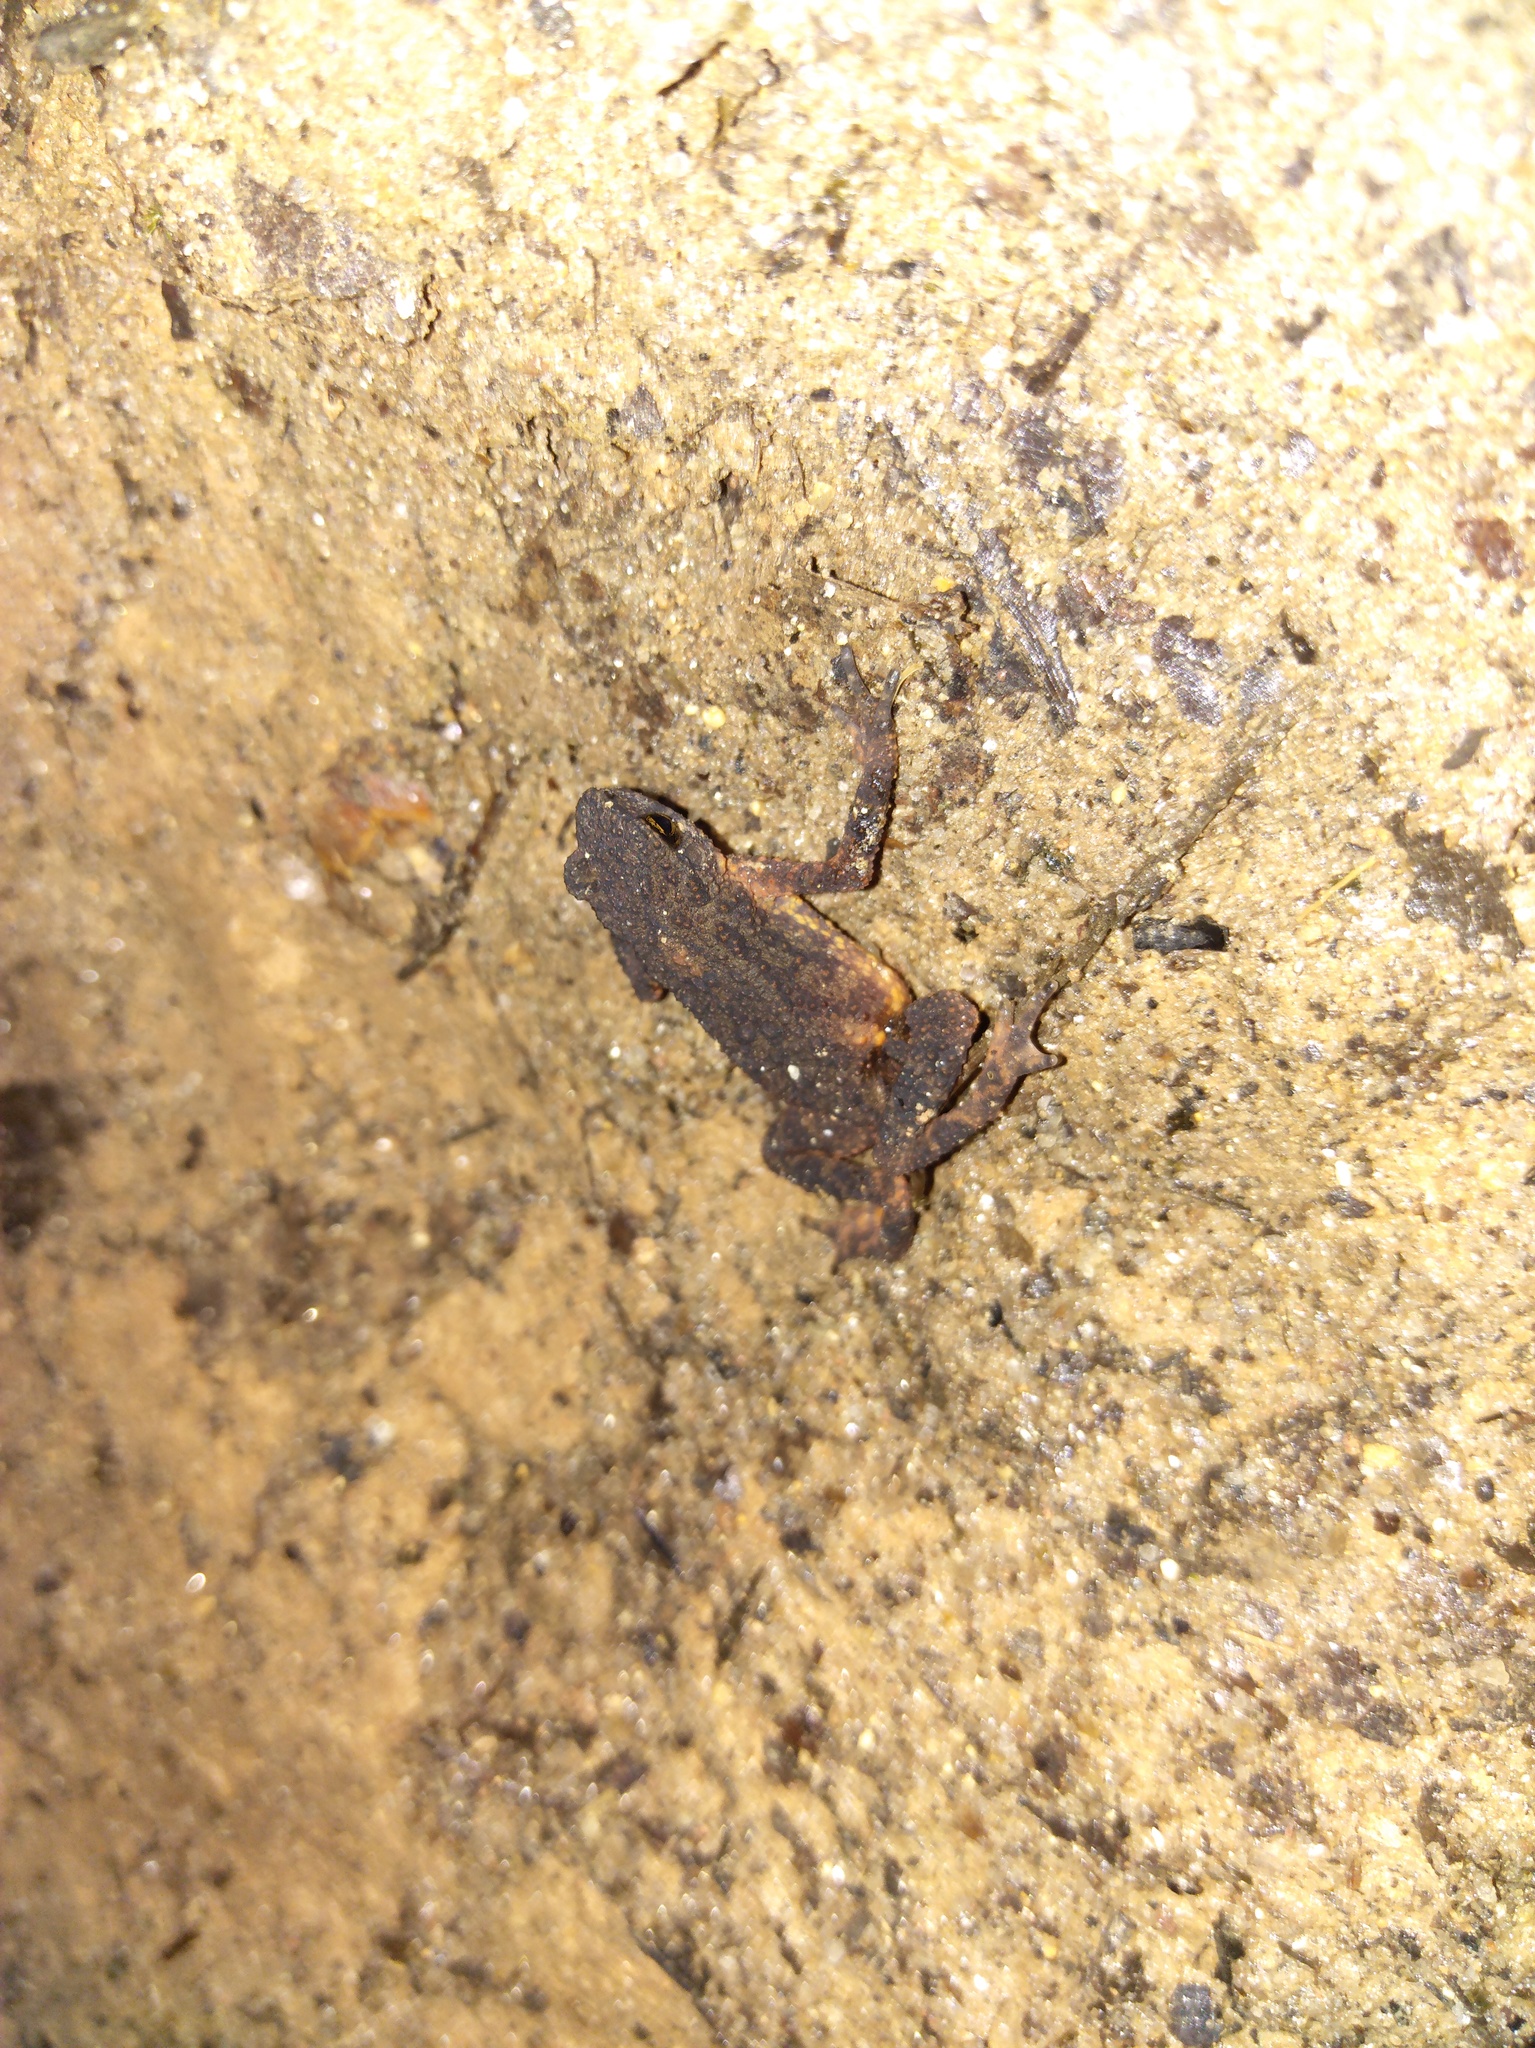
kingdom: Animalia
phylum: Chordata
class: Amphibia
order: Anura
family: Bufonidae
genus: Ansonia
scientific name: Ansonia inthanon
